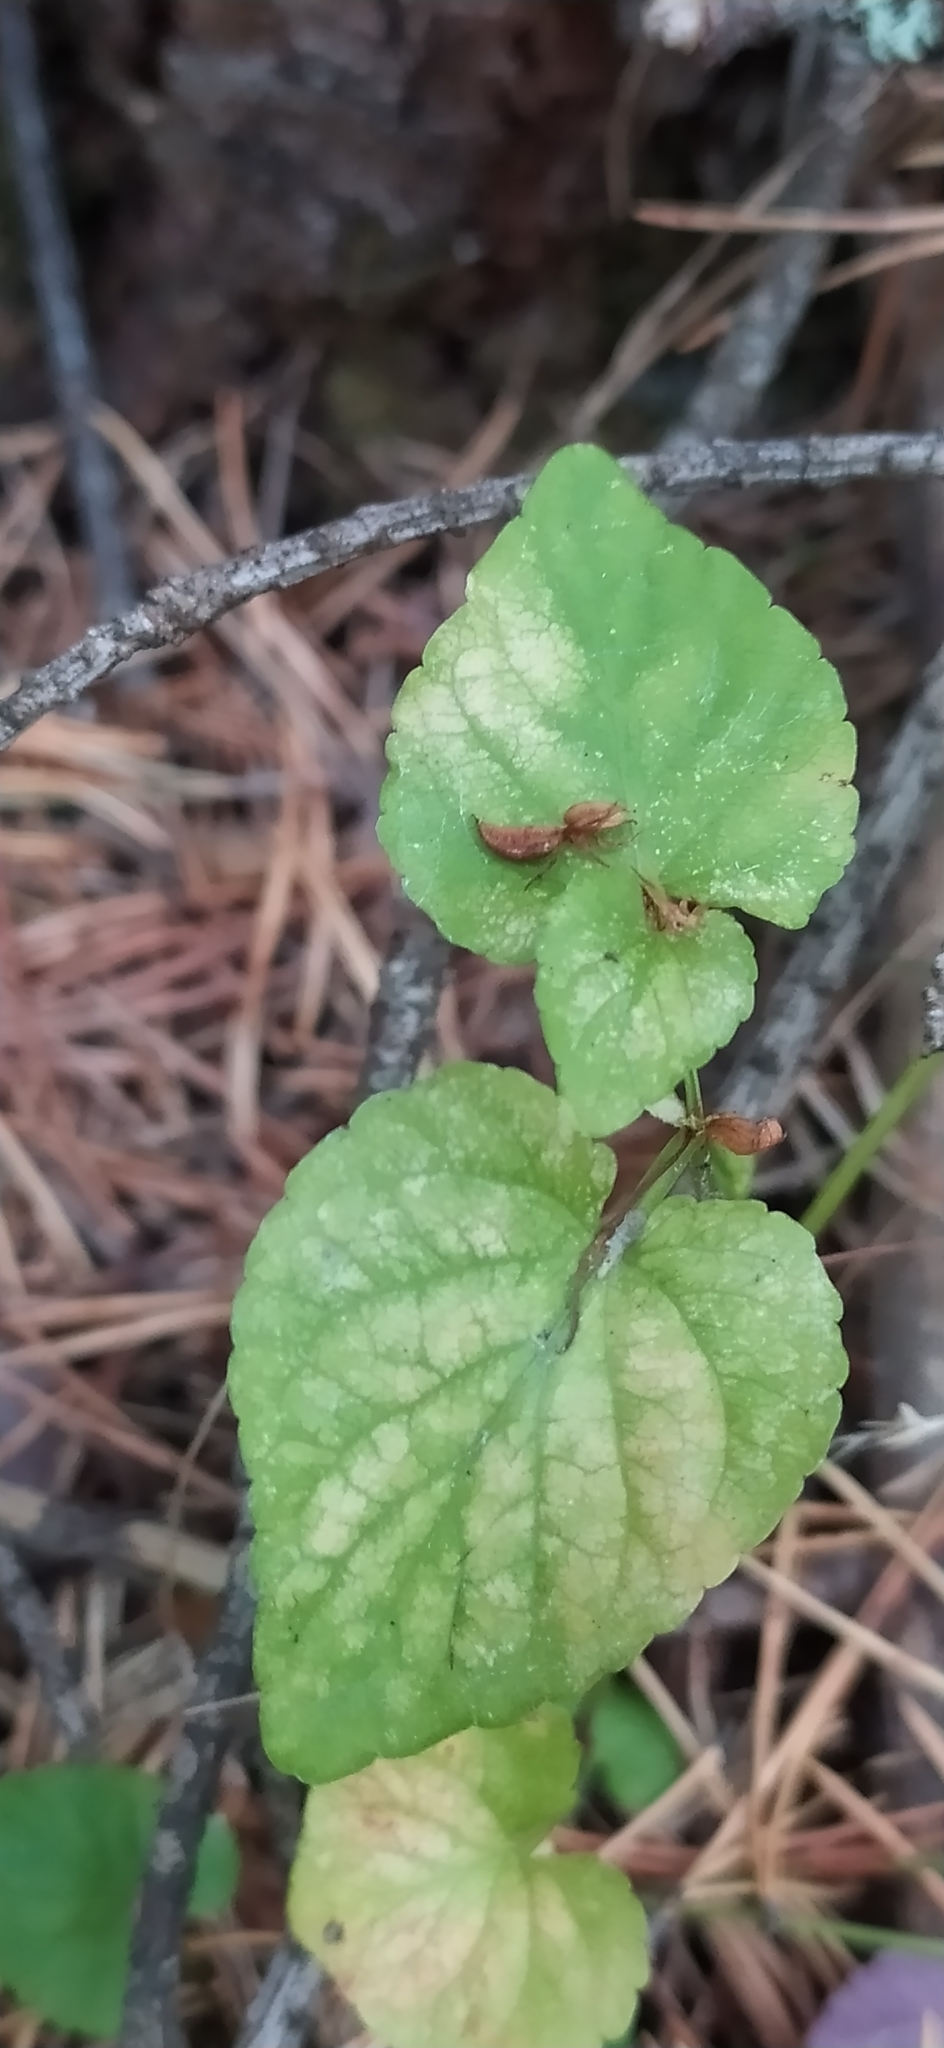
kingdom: Plantae
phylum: Tracheophyta
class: Magnoliopsida
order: Malpighiales
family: Violaceae
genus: Viola
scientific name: Viola mirabilis
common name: Wonder violet
